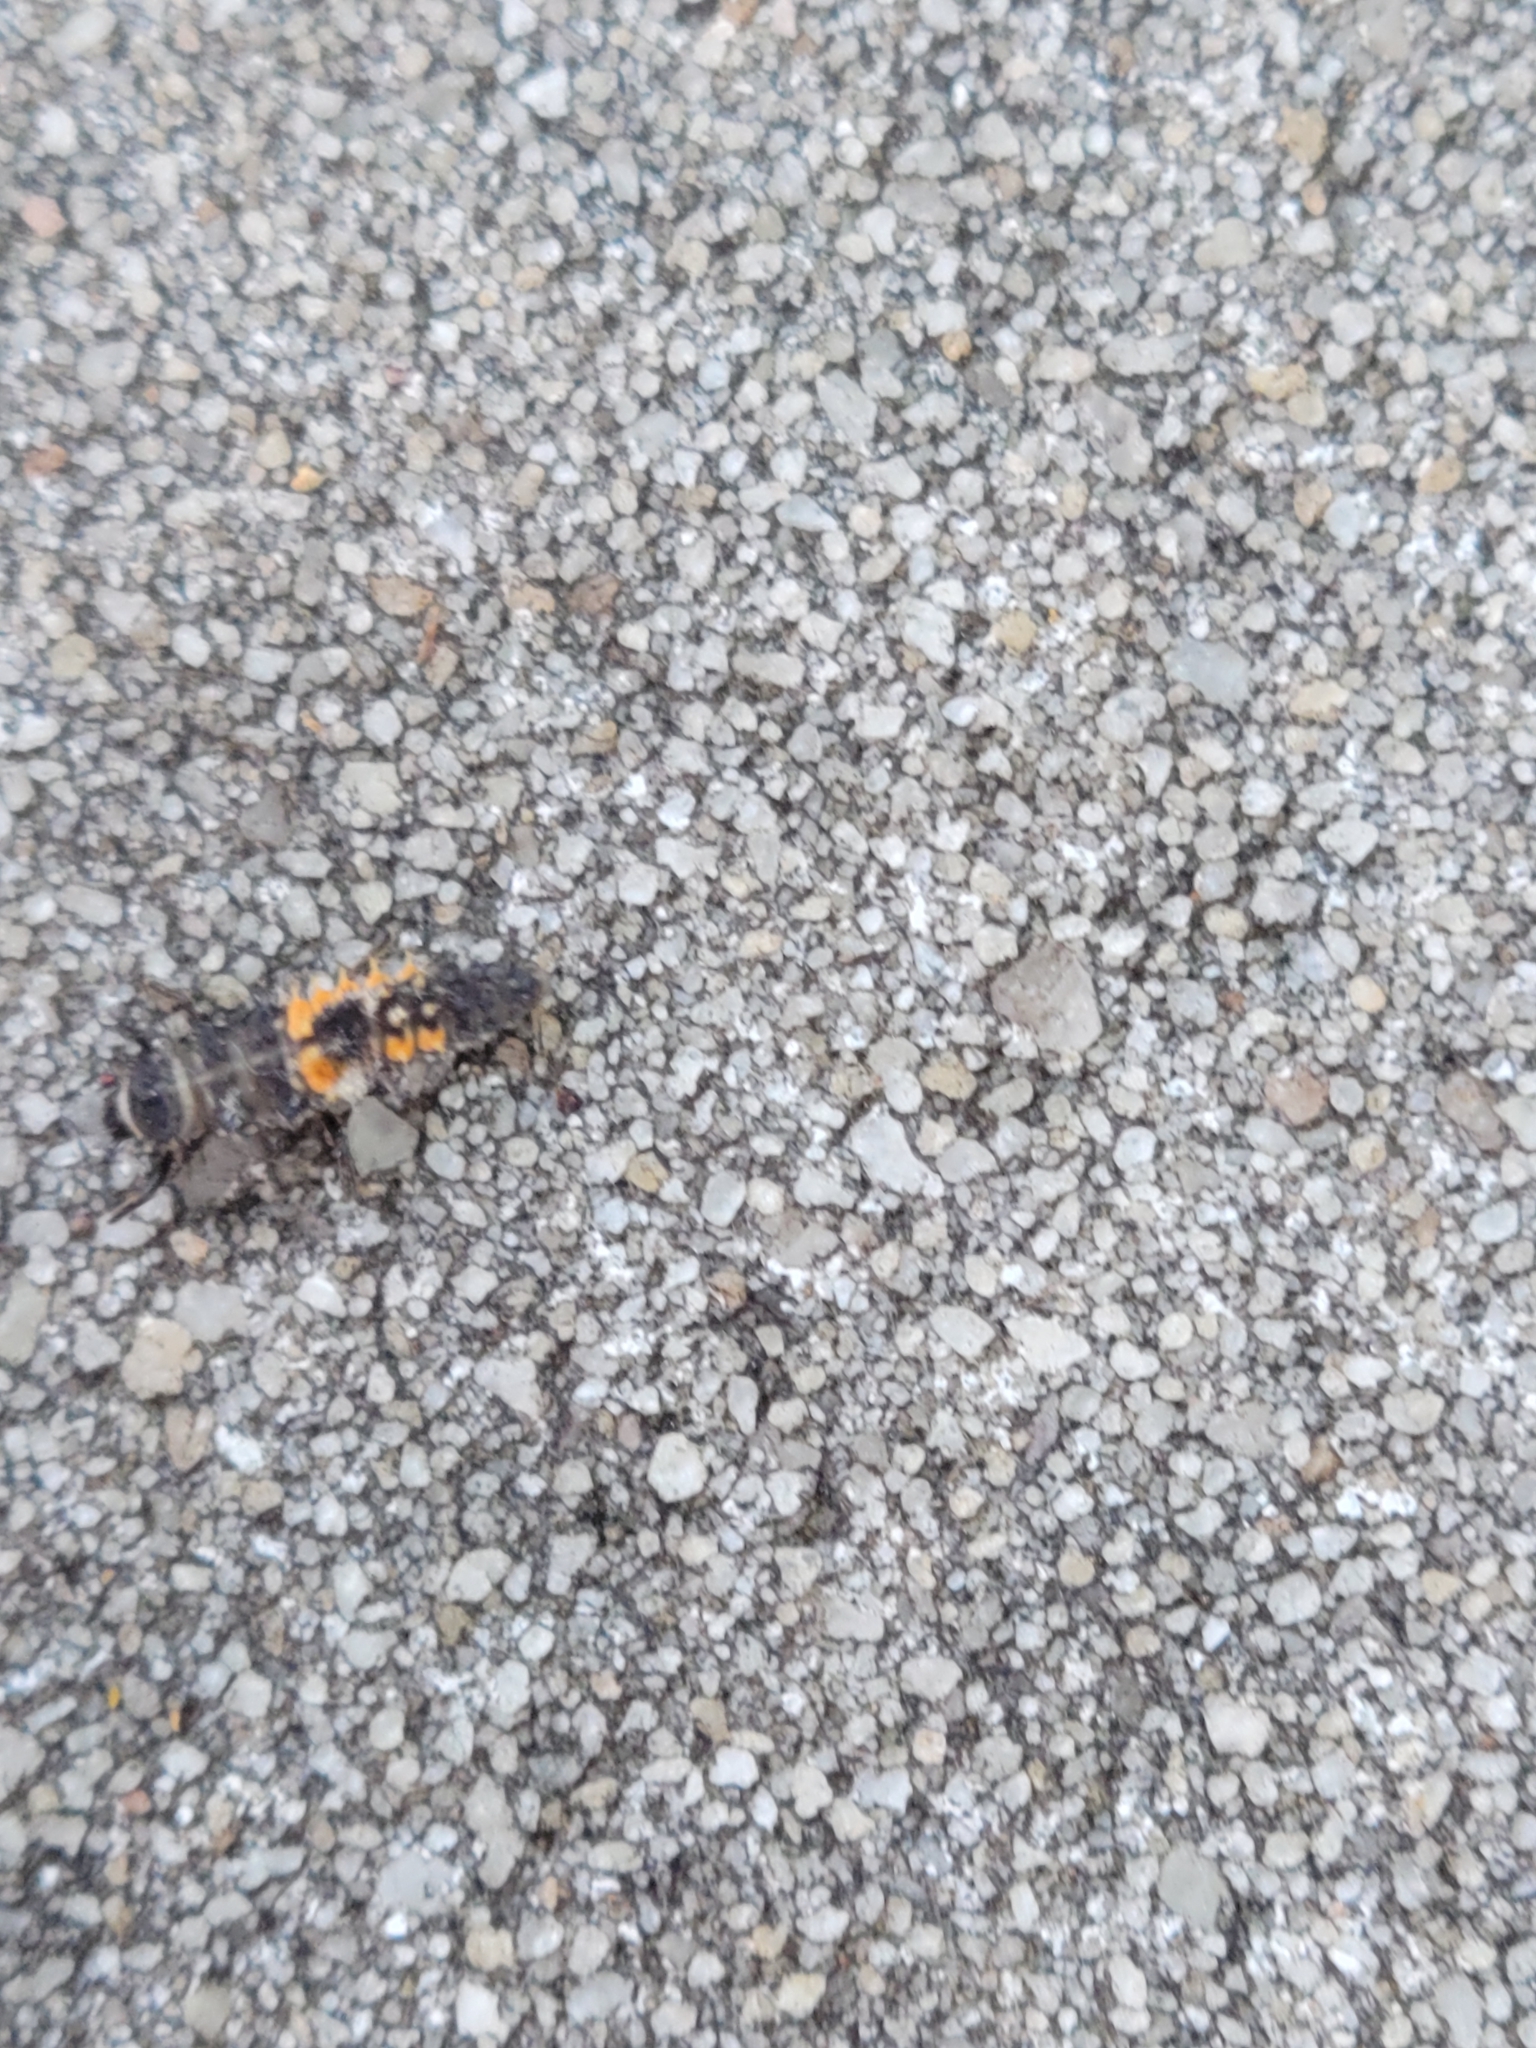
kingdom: Animalia
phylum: Arthropoda
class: Insecta
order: Coleoptera
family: Coccinellidae
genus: Harmonia
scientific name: Harmonia axyridis
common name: Harlequin ladybird
